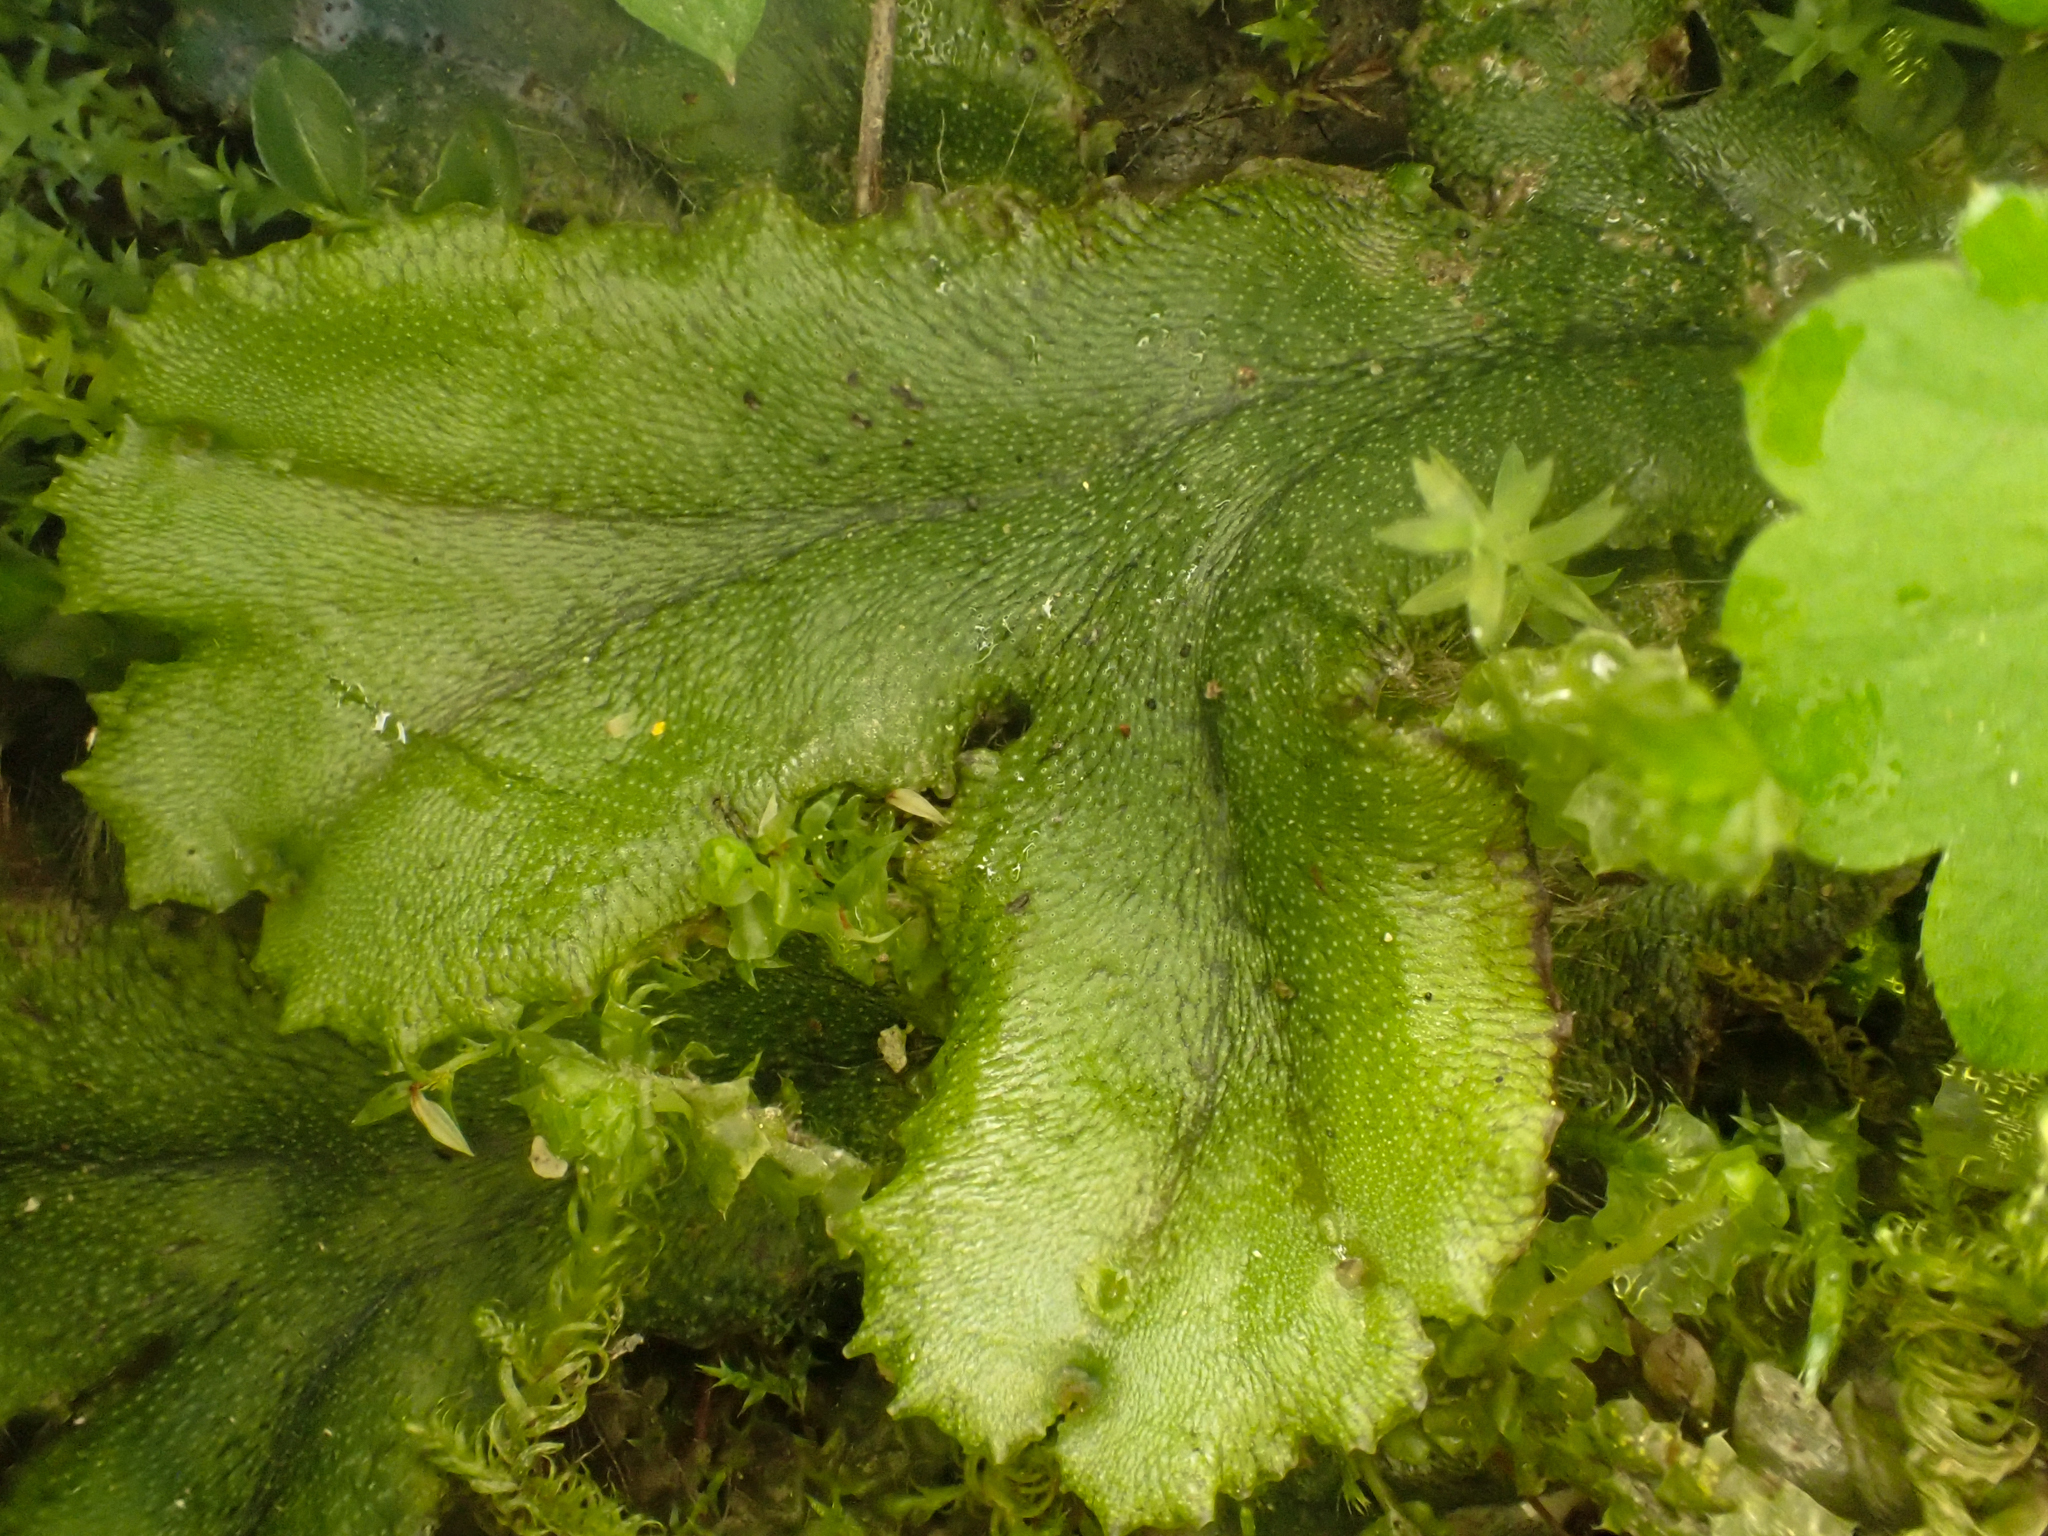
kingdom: Plantae
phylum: Marchantiophyta
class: Marchantiopsida
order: Marchantiales
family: Marchantiaceae
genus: Marchantia
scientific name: Marchantia polymorpha
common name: Common liverwort
